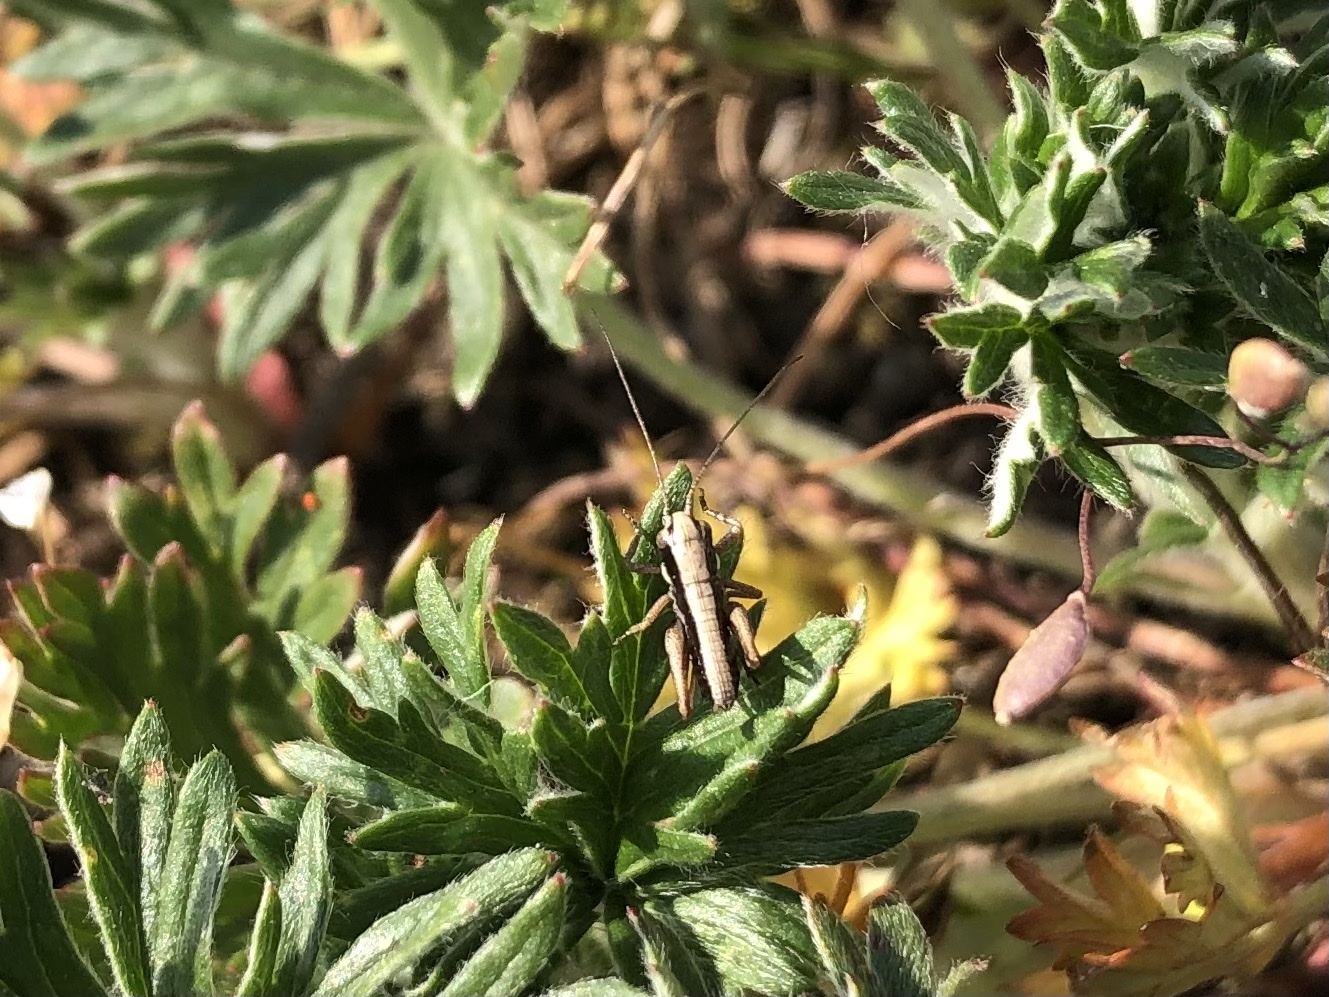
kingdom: Animalia
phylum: Arthropoda
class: Insecta
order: Orthoptera
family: Tettigoniidae
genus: Pholidoptera
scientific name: Pholidoptera griseoaptera
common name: Dark bush-cricket
